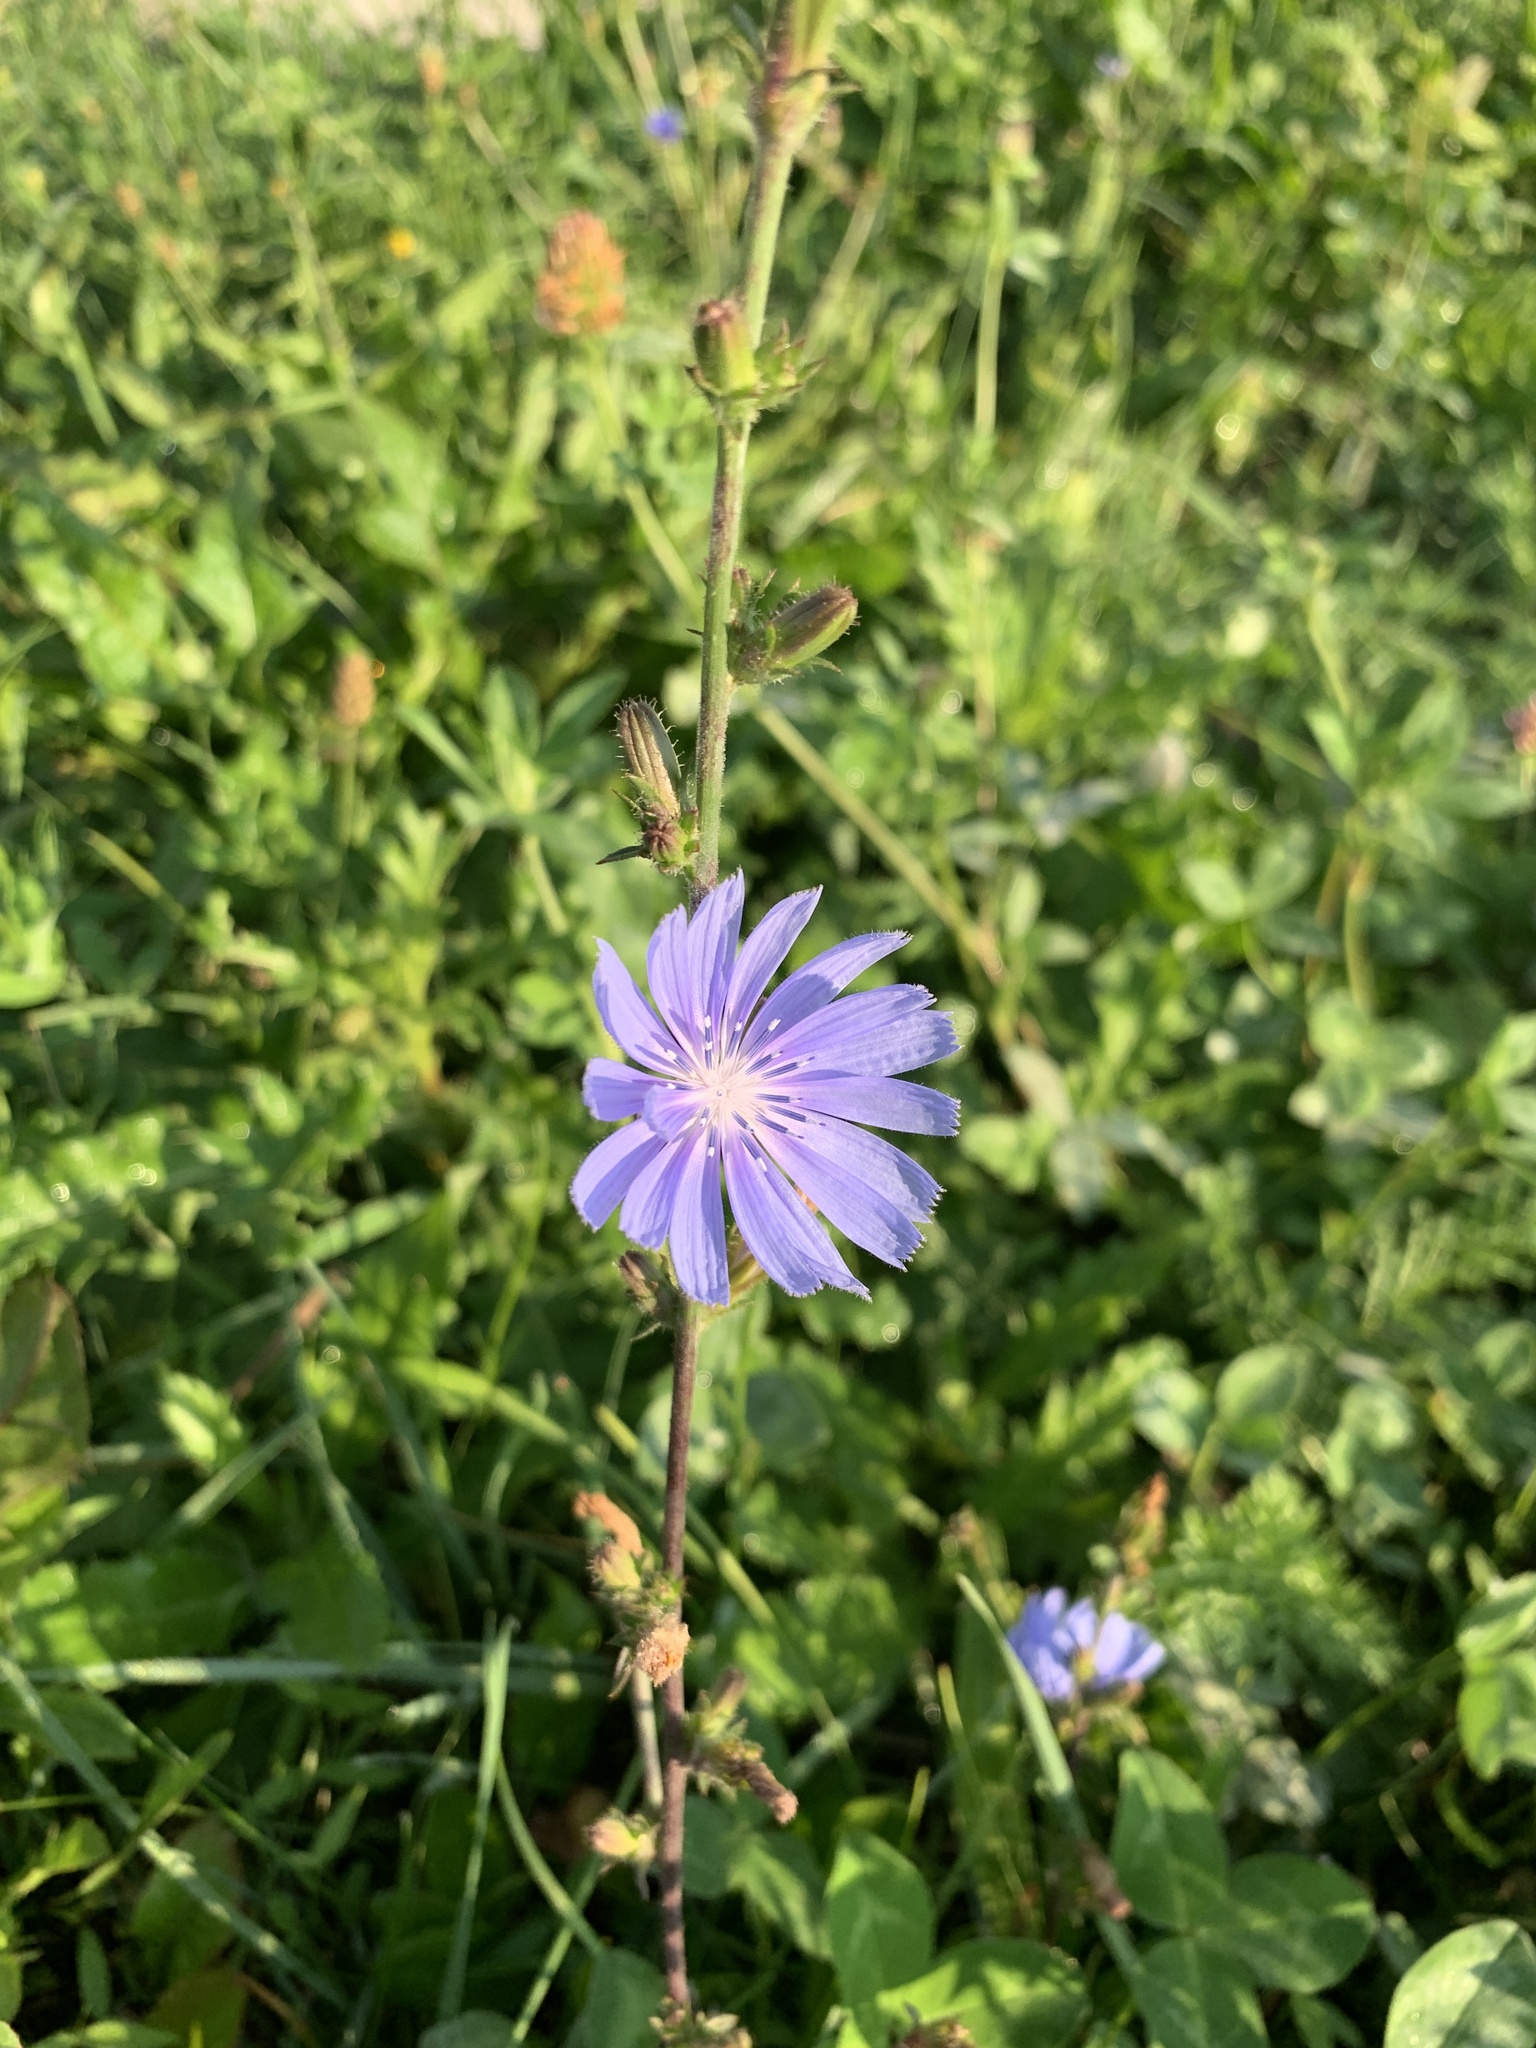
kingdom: Plantae
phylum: Tracheophyta
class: Magnoliopsida
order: Asterales
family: Asteraceae
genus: Cichorium
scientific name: Cichorium intybus
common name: Chicory
